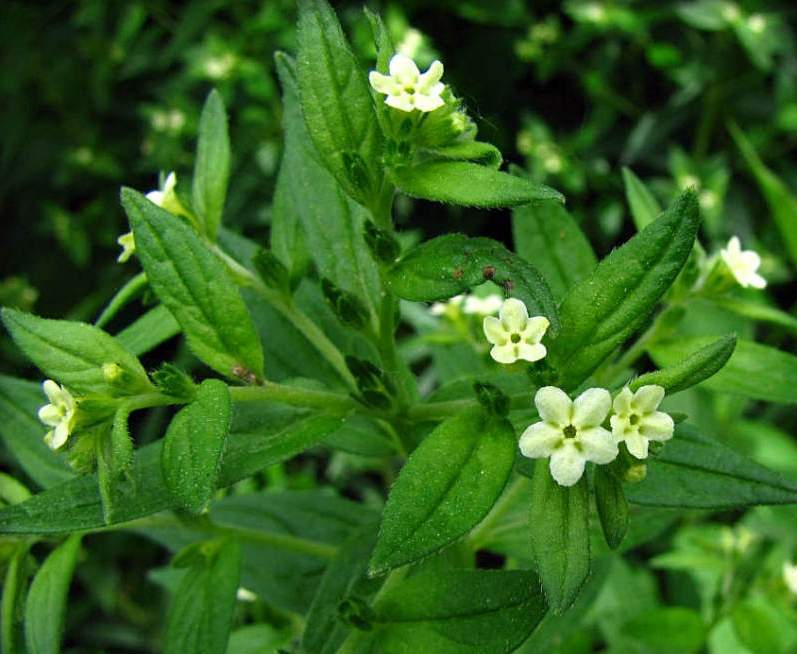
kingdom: Plantae
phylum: Tracheophyta
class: Magnoliopsida
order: Boraginales
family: Boraginaceae
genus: Lithospermum
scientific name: Lithospermum officinale
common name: Common gromwell
